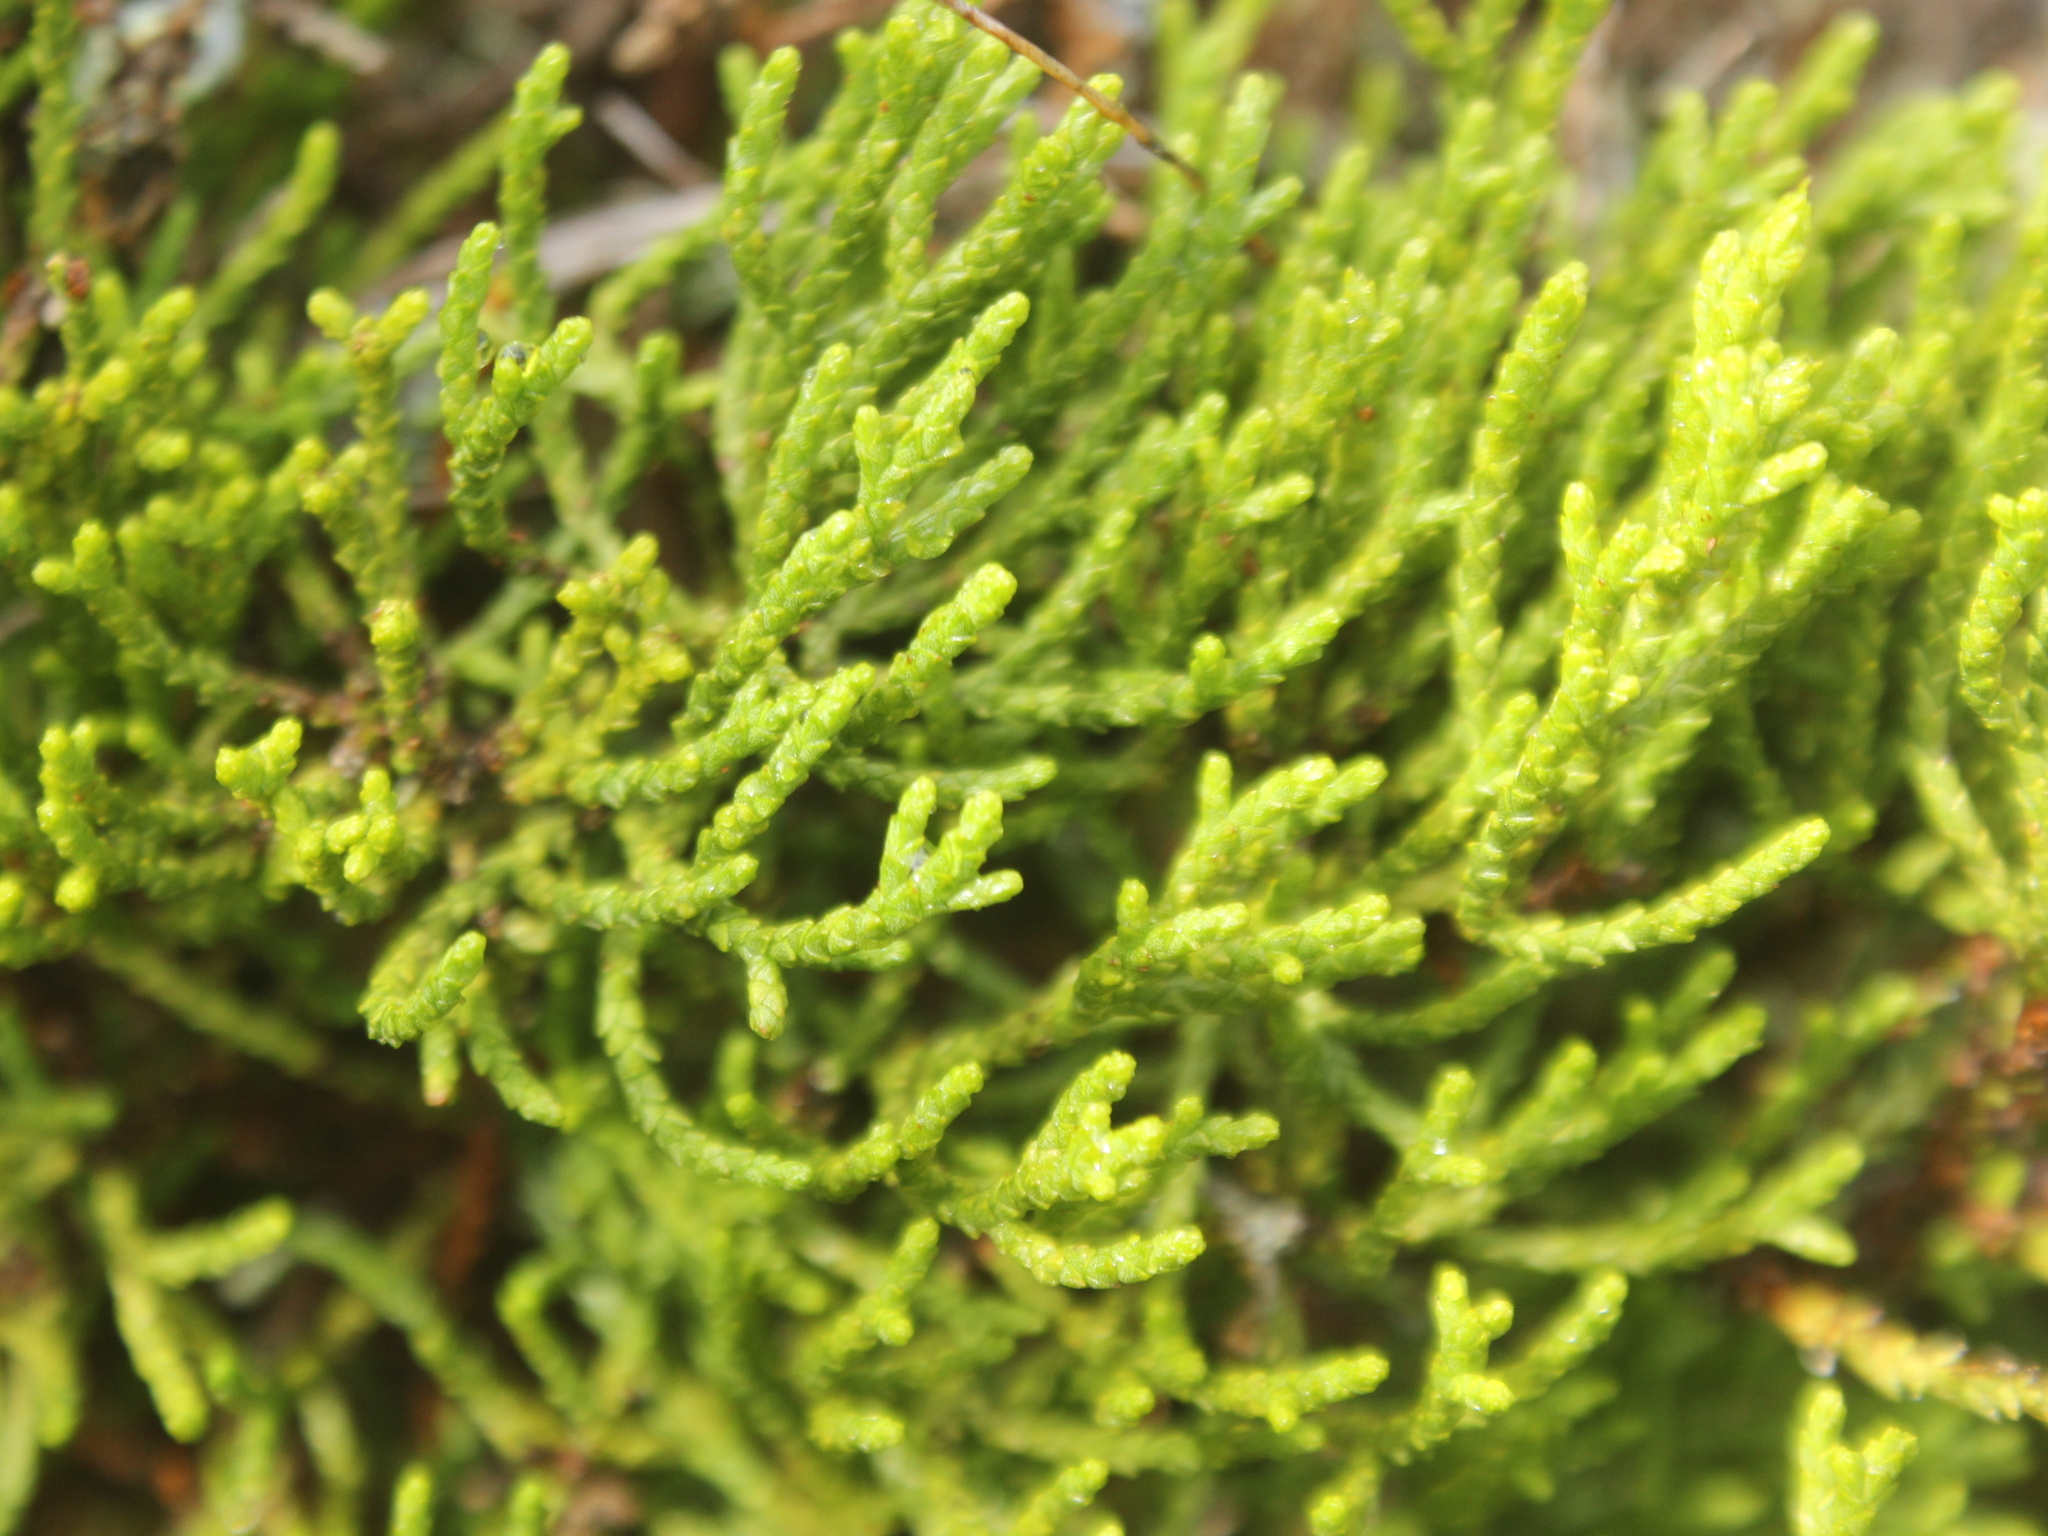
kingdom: Plantae
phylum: Tracheophyta
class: Pinopsida
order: Pinales
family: Podocarpaceae
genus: Halocarpus
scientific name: Halocarpus bidwillii
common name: Bog pine
